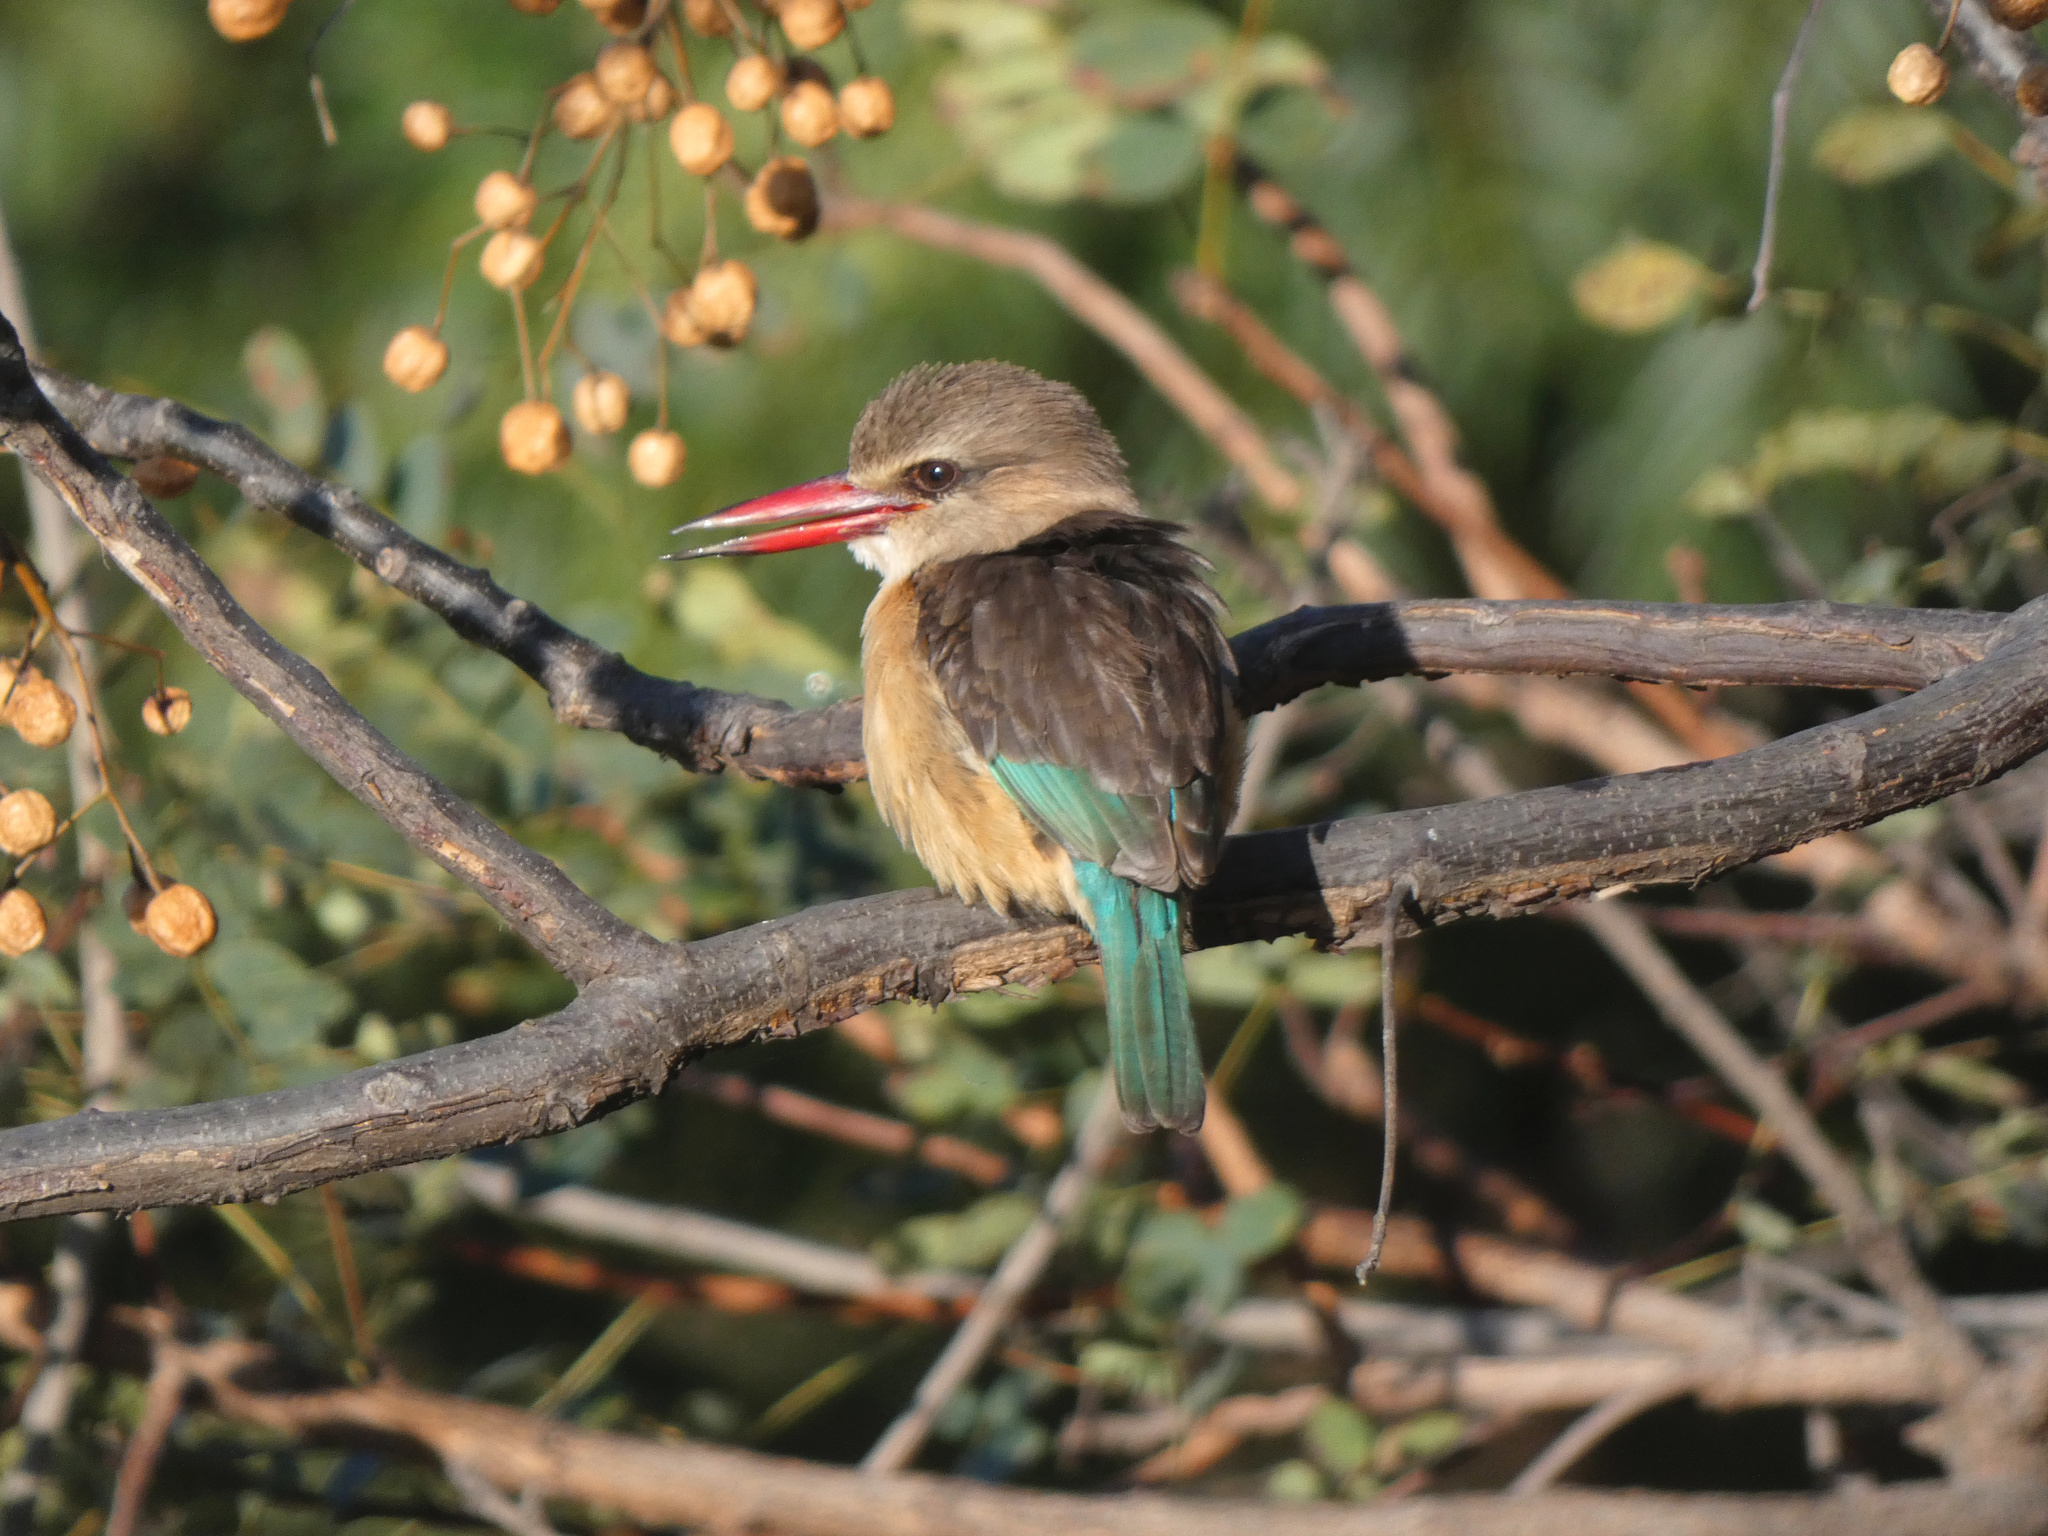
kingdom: Animalia
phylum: Chordata
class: Aves
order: Coraciiformes
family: Alcedinidae
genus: Halcyon
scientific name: Halcyon albiventris
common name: Brown-hooded kingfisher
